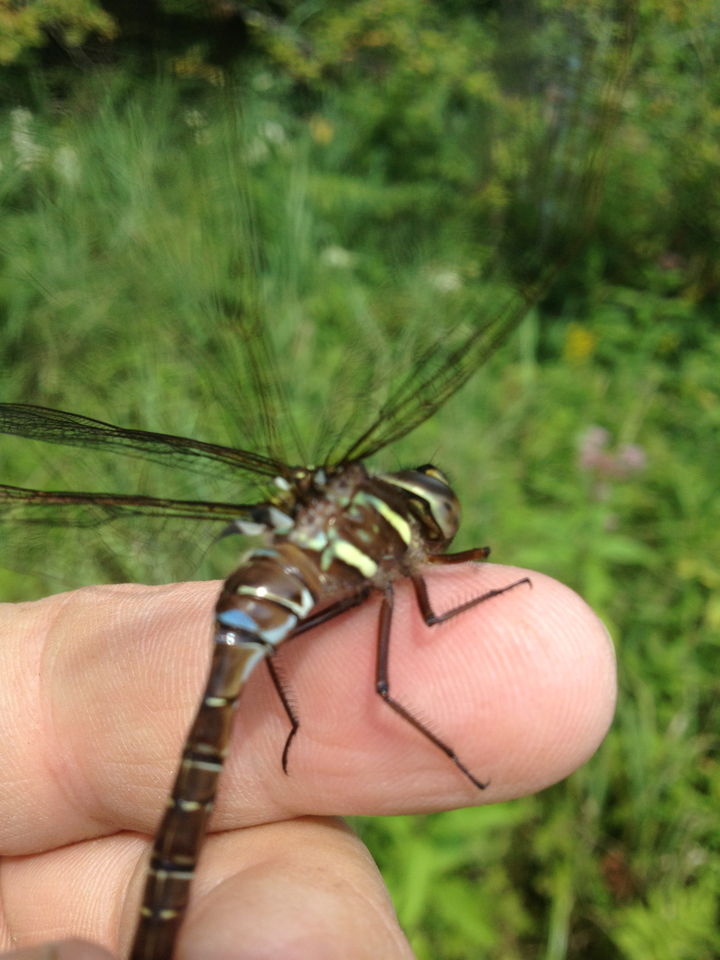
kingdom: Animalia
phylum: Arthropoda
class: Insecta
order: Odonata
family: Aeshnidae
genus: Aeshna
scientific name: Aeshna umbrosa
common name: Shadow darner
